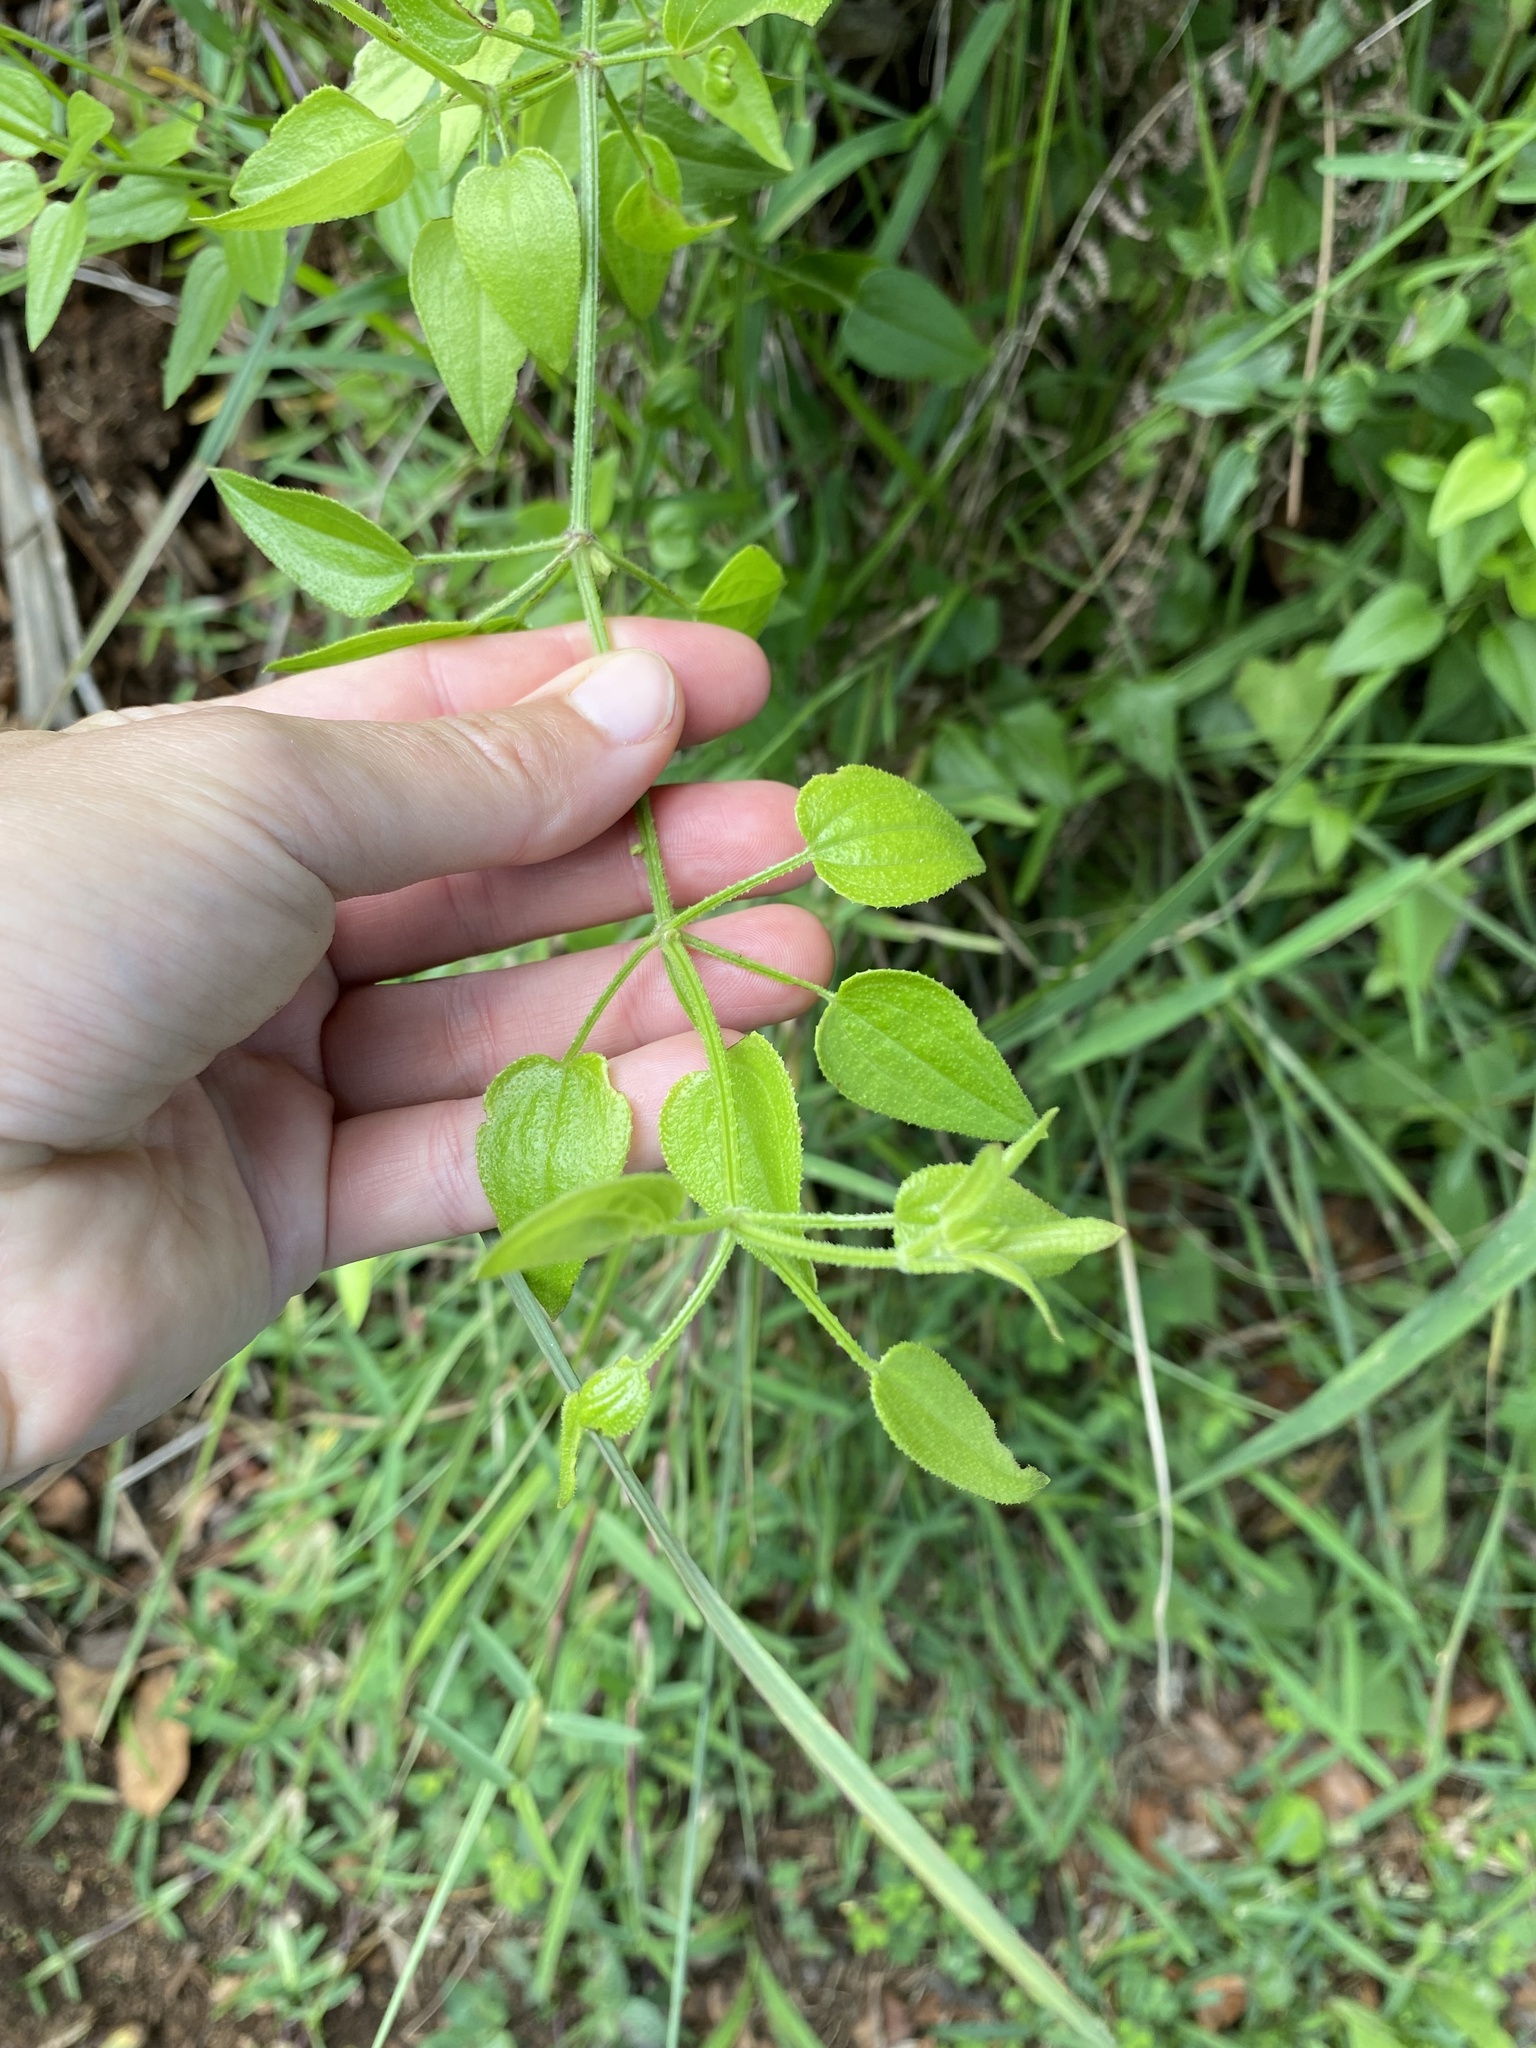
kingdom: Plantae
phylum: Tracheophyta
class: Magnoliopsida
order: Gentianales
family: Rubiaceae
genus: Rubia
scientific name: Rubia cordifolia
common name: Indian madder
